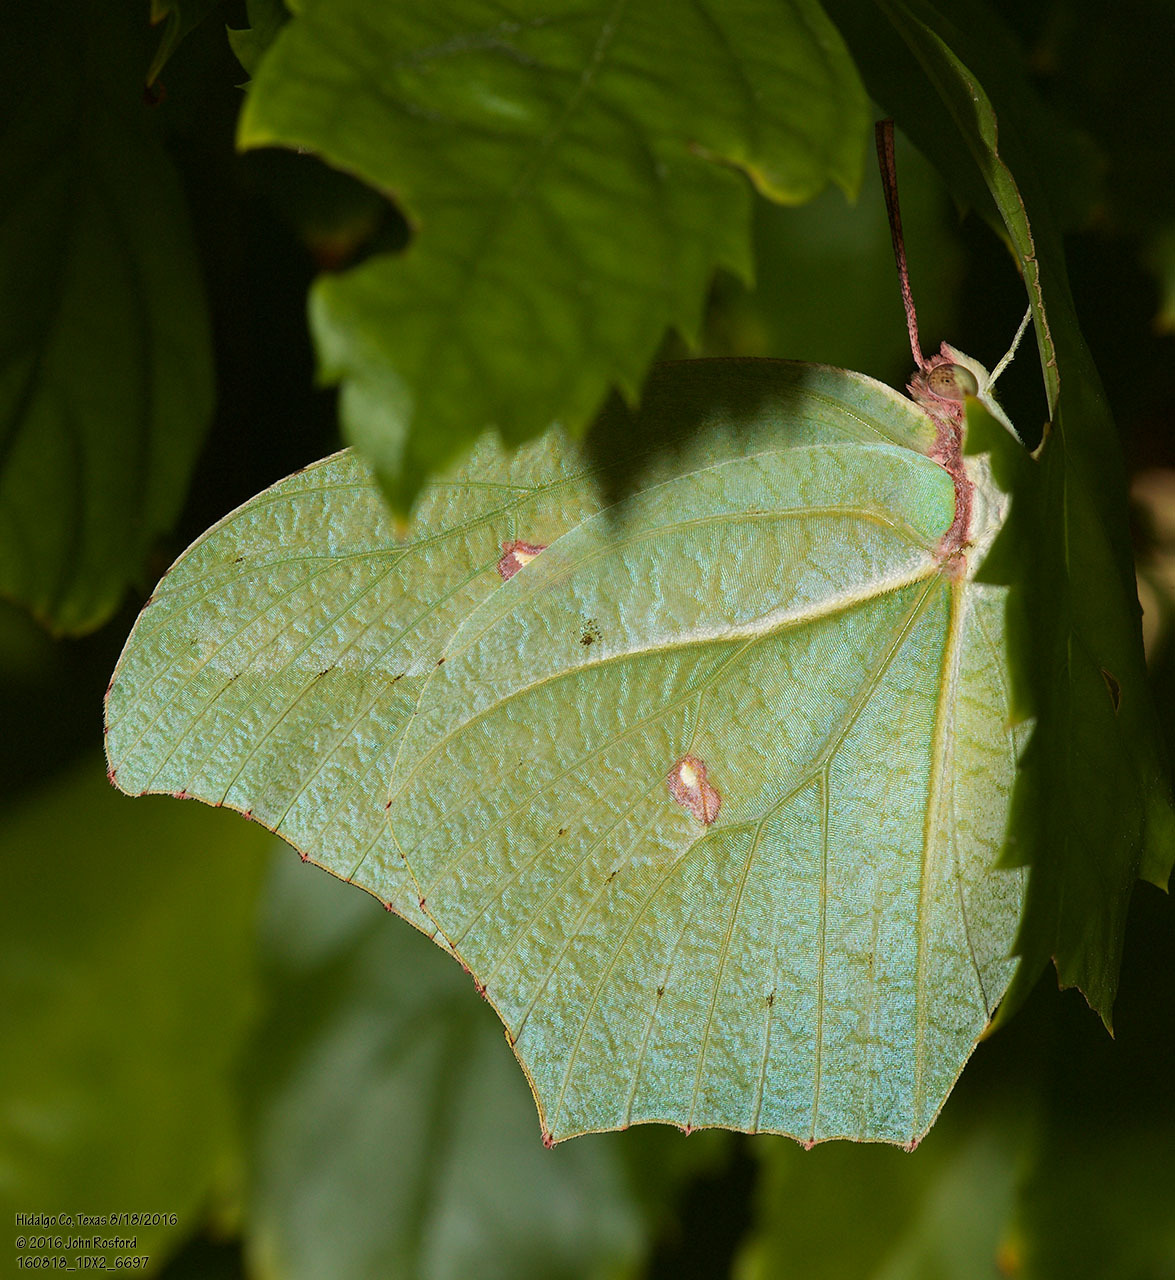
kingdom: Animalia
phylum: Arthropoda
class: Insecta
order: Lepidoptera
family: Pieridae
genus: Anteos
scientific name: Anteos maerula
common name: Angled sulphur
